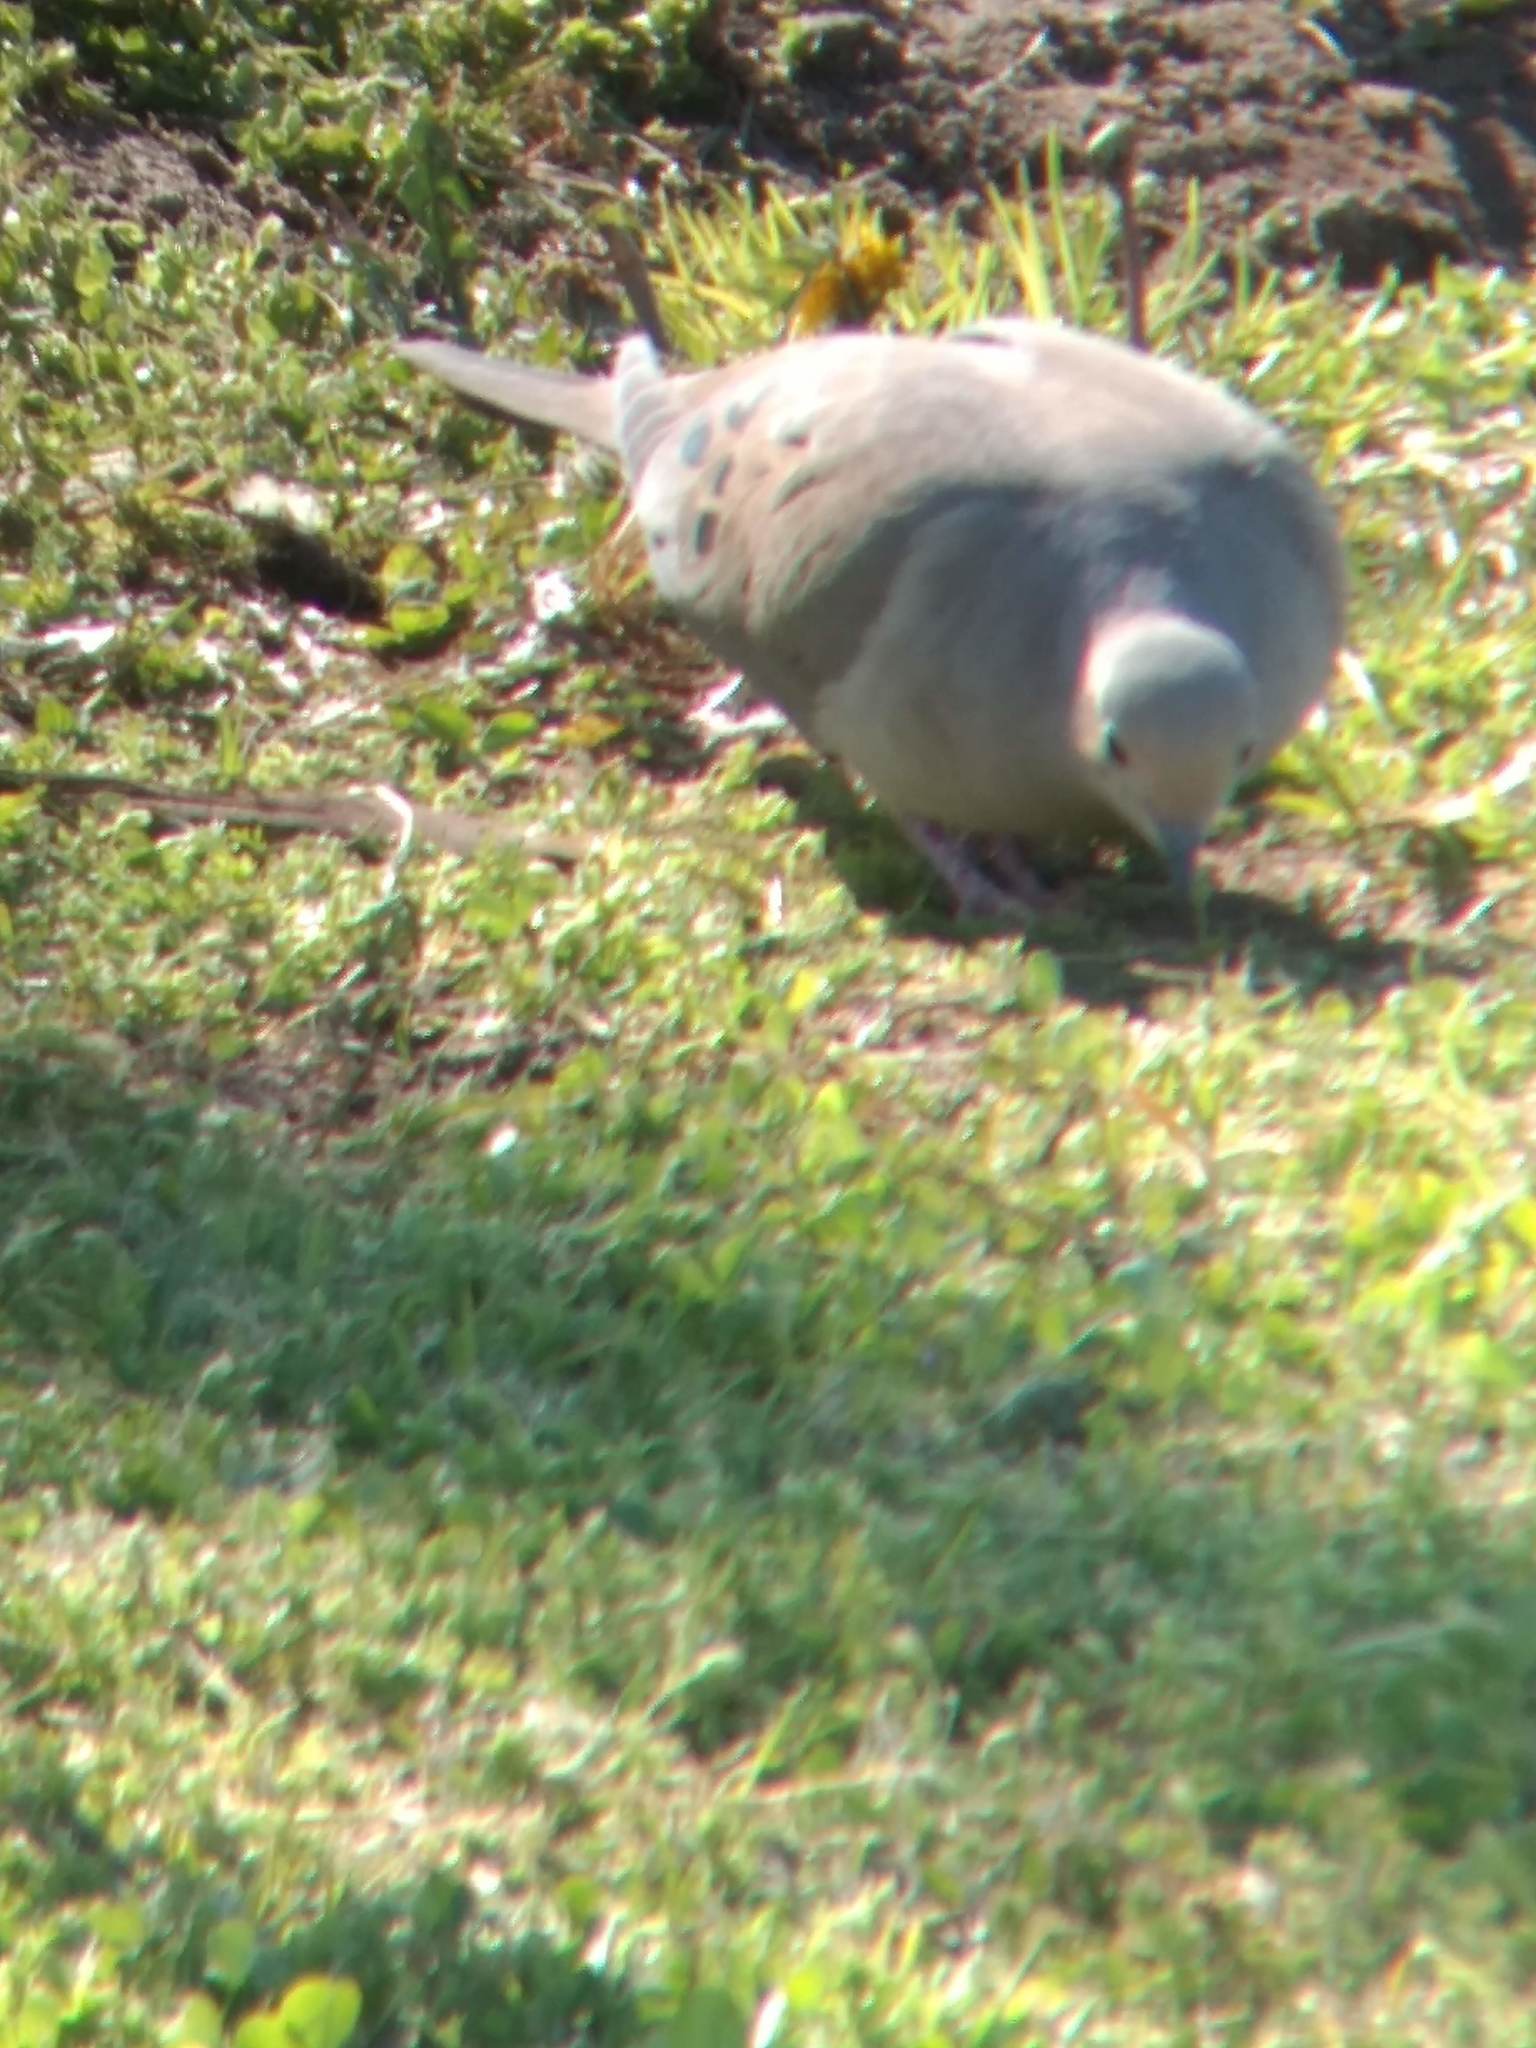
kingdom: Animalia
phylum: Chordata
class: Aves
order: Columbiformes
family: Columbidae
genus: Zenaida
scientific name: Zenaida macroura
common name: Mourning dove
